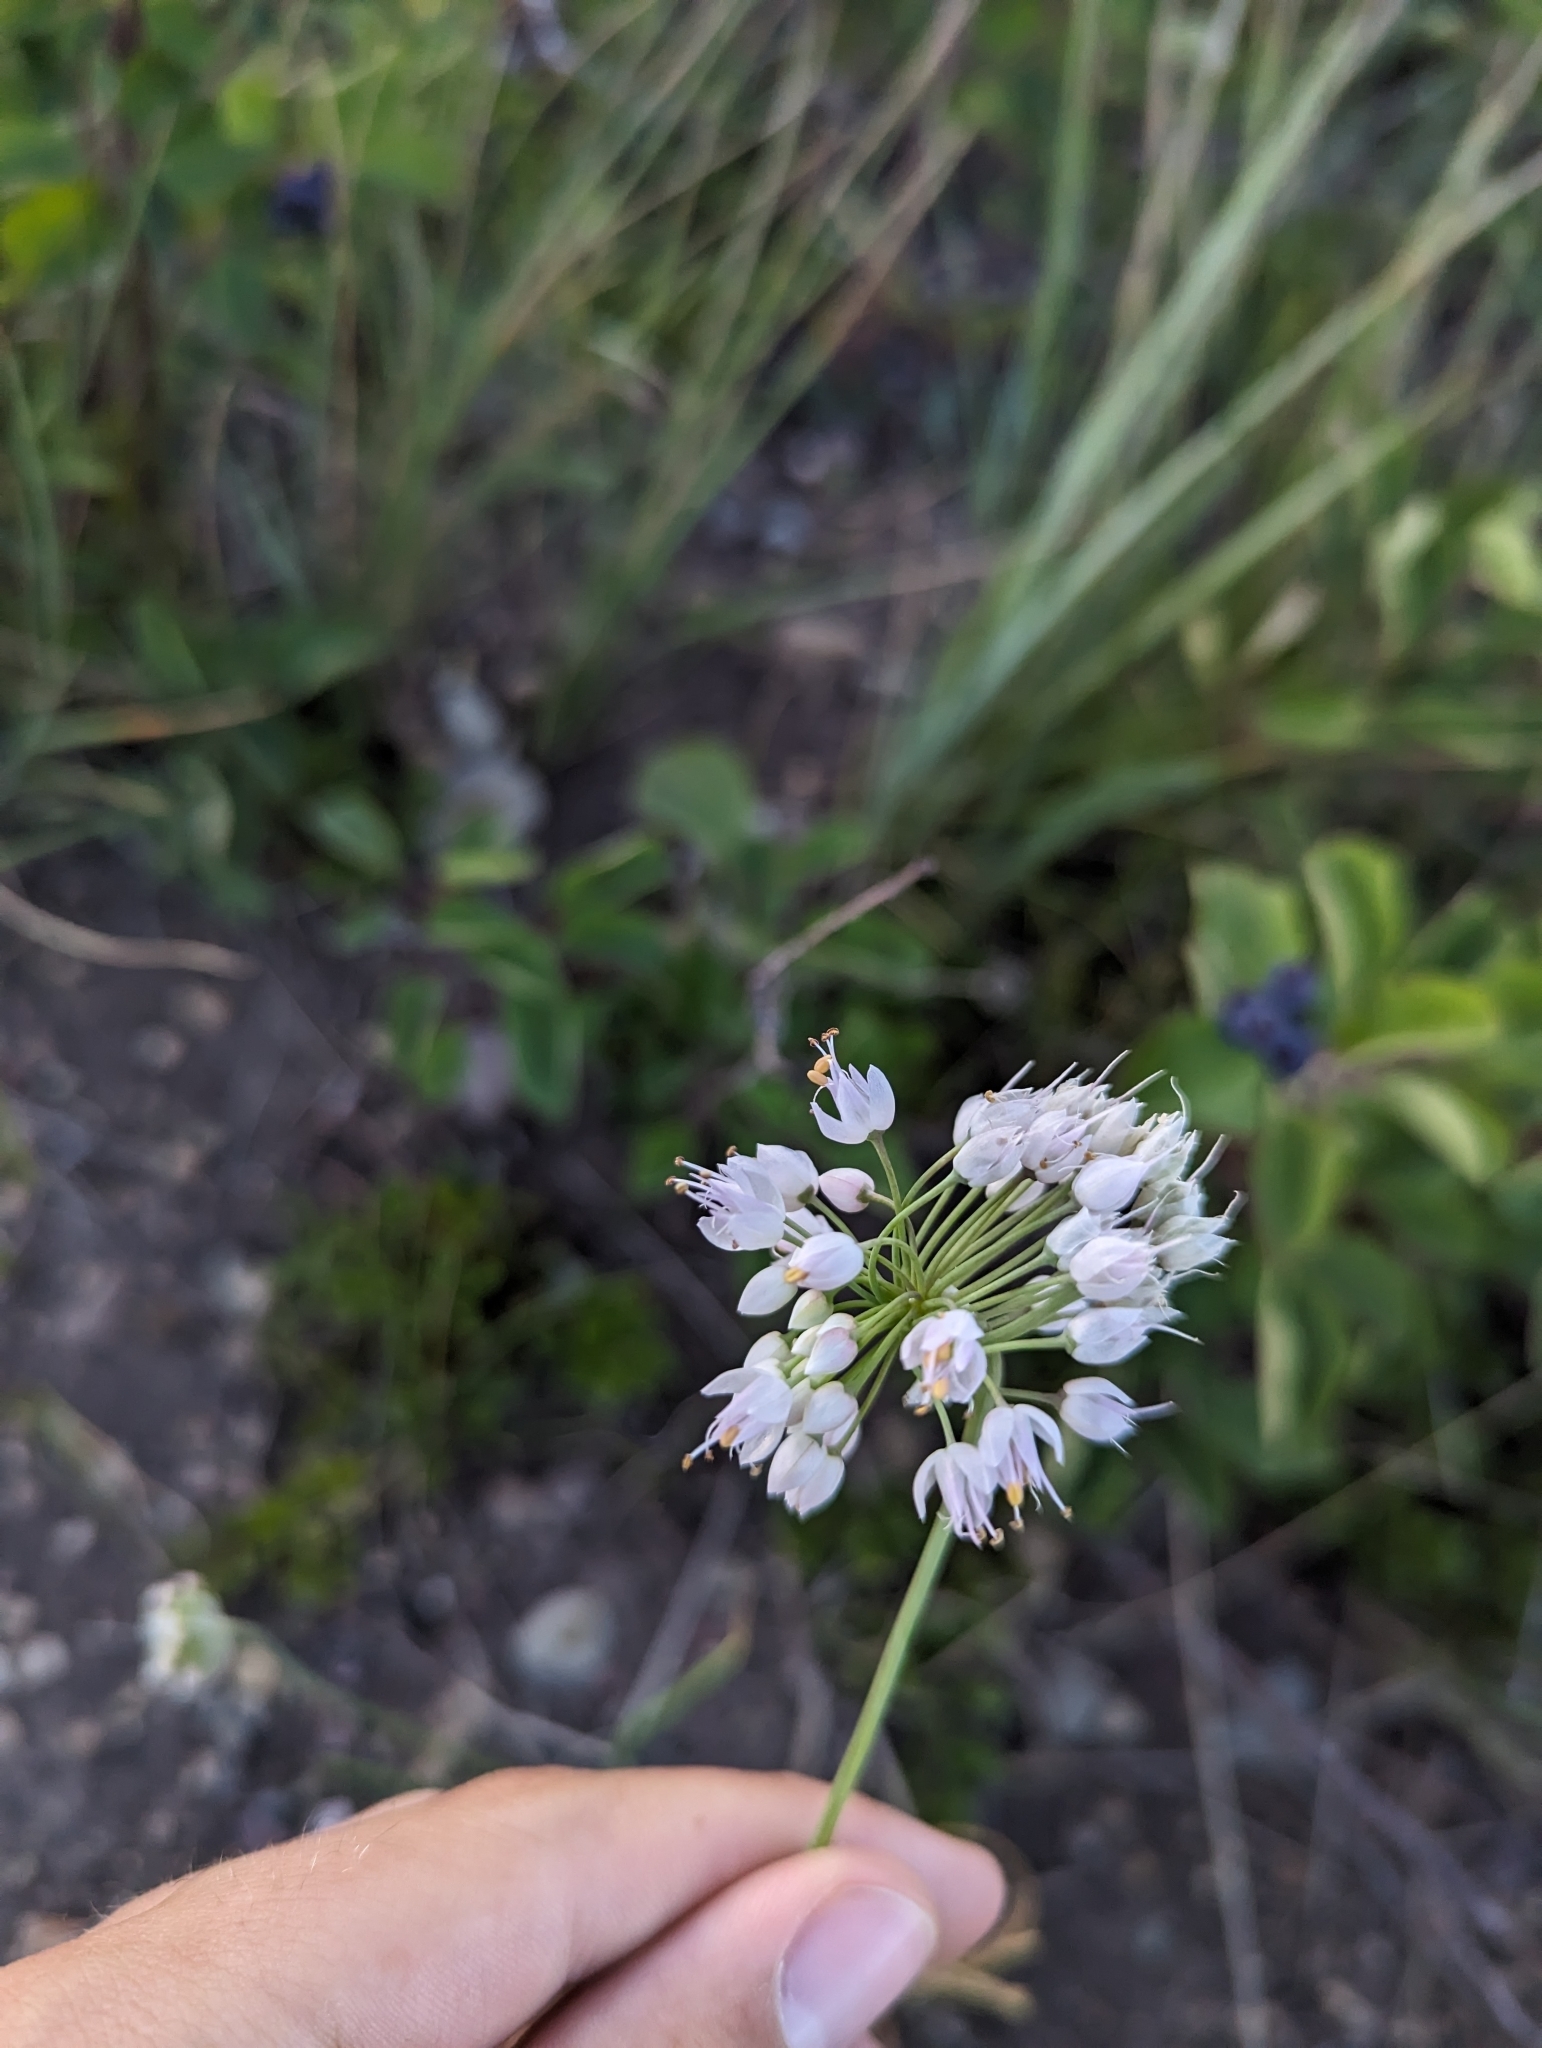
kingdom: Plantae
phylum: Tracheophyta
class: Liliopsida
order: Asparagales
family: Amaryllidaceae
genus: Allium
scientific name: Allium cernuum
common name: Nodding onion
